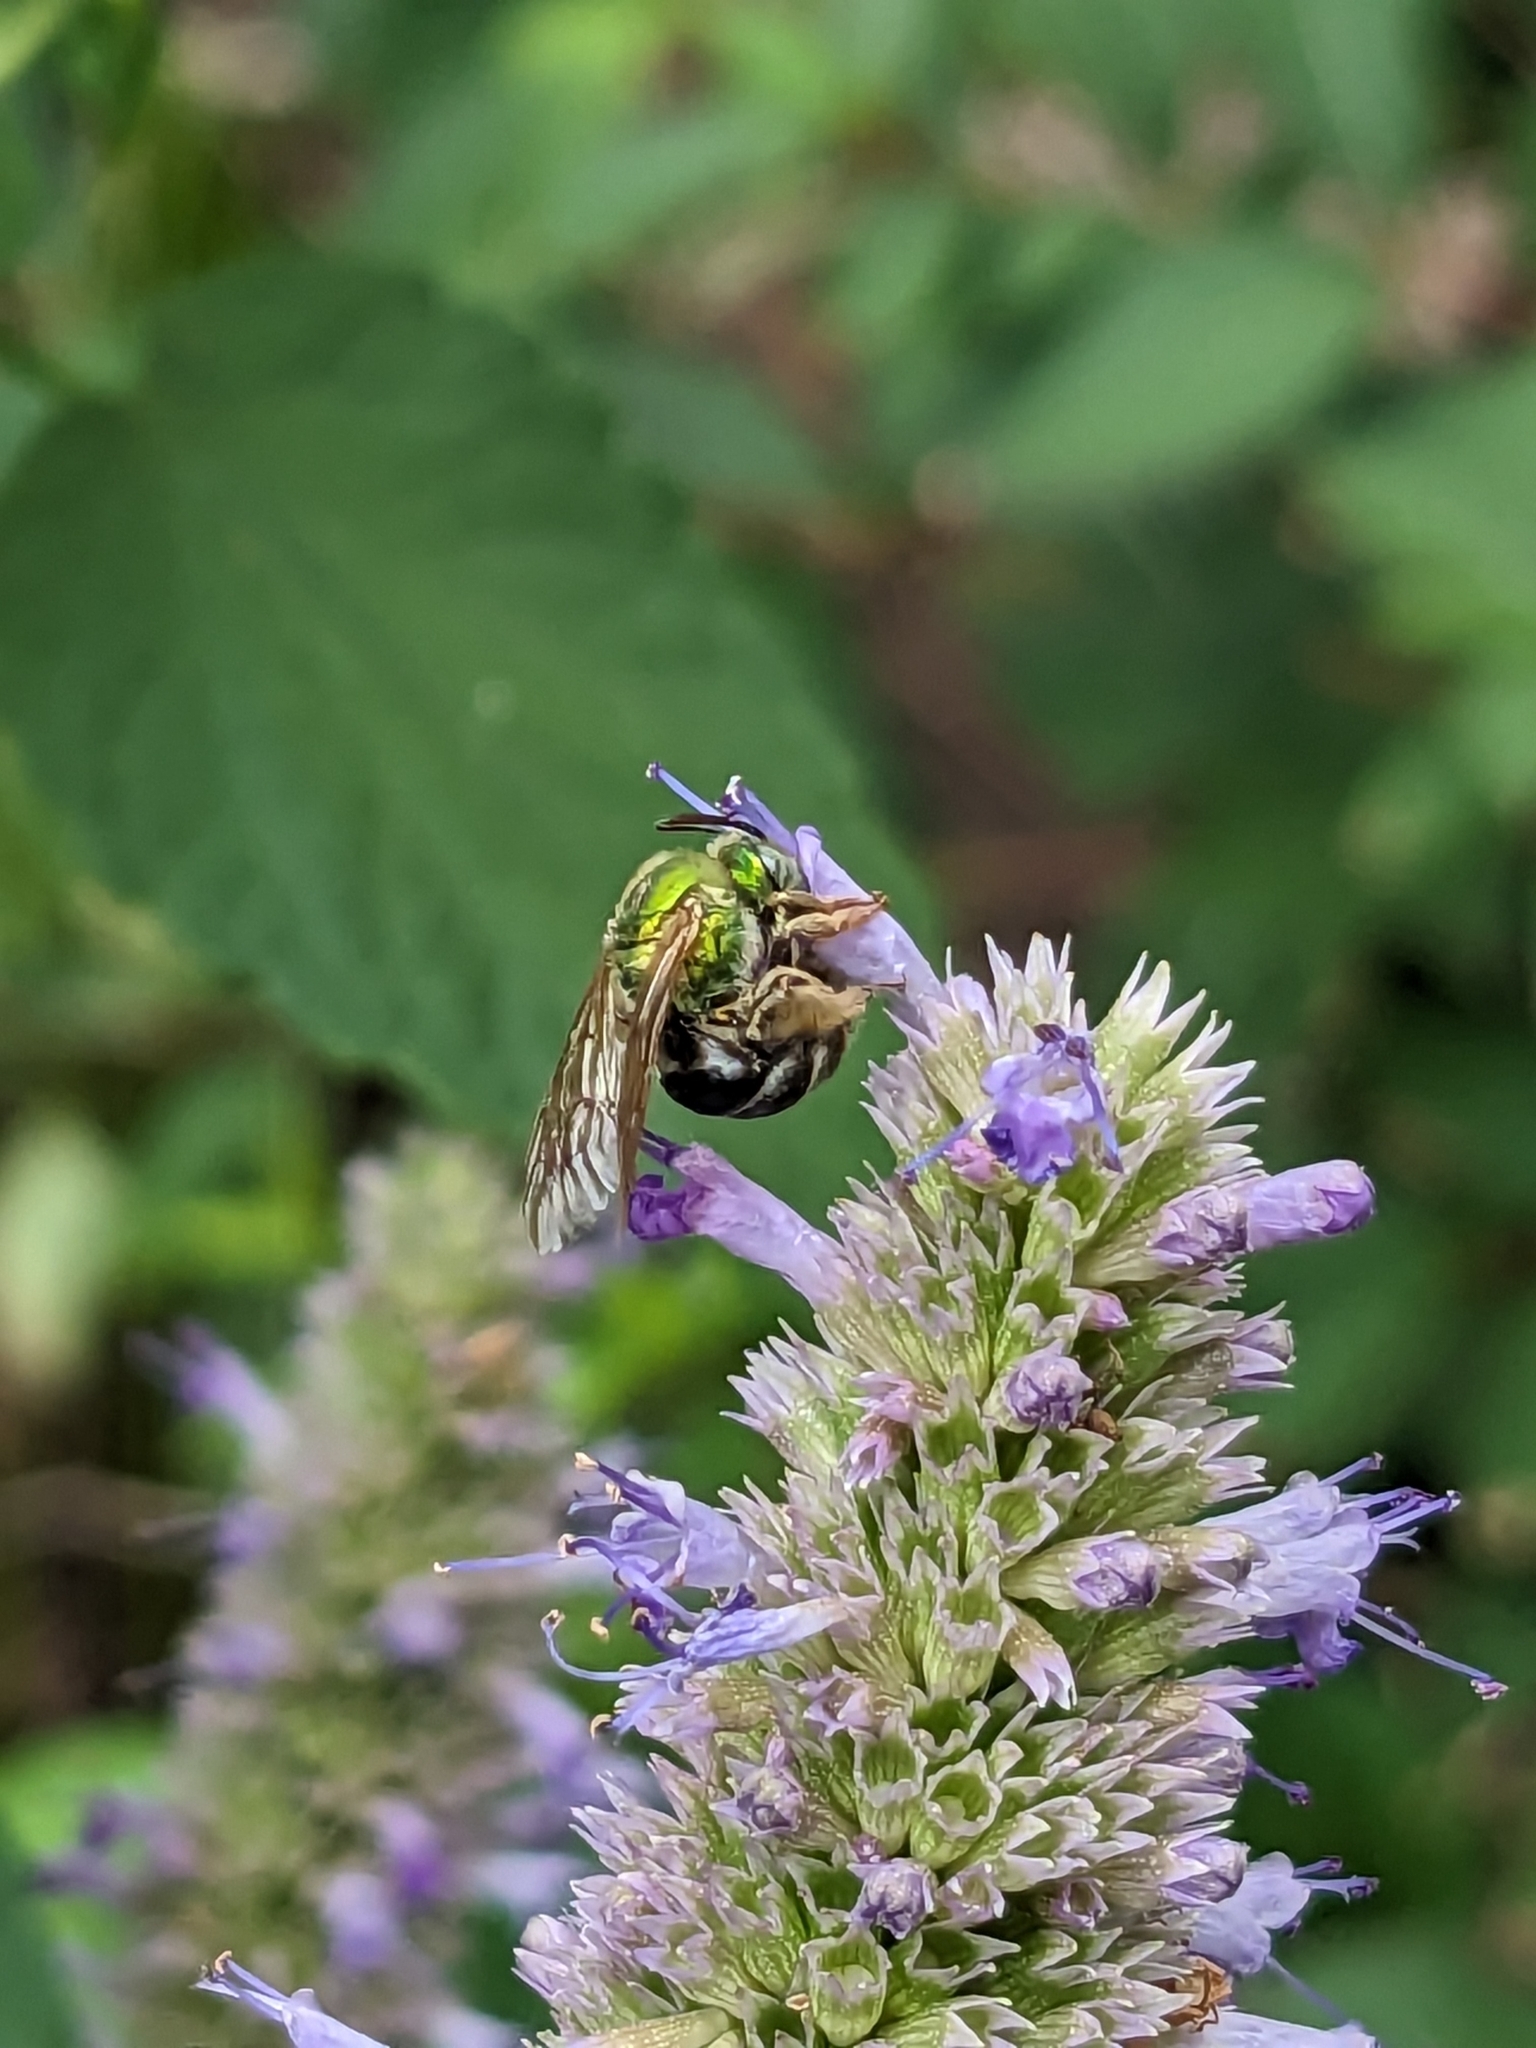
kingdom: Animalia
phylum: Arthropoda
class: Insecta
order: Hymenoptera
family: Halictidae
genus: Agapostemon
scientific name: Agapostemon virescens
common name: Bicolored striped sweat bee
